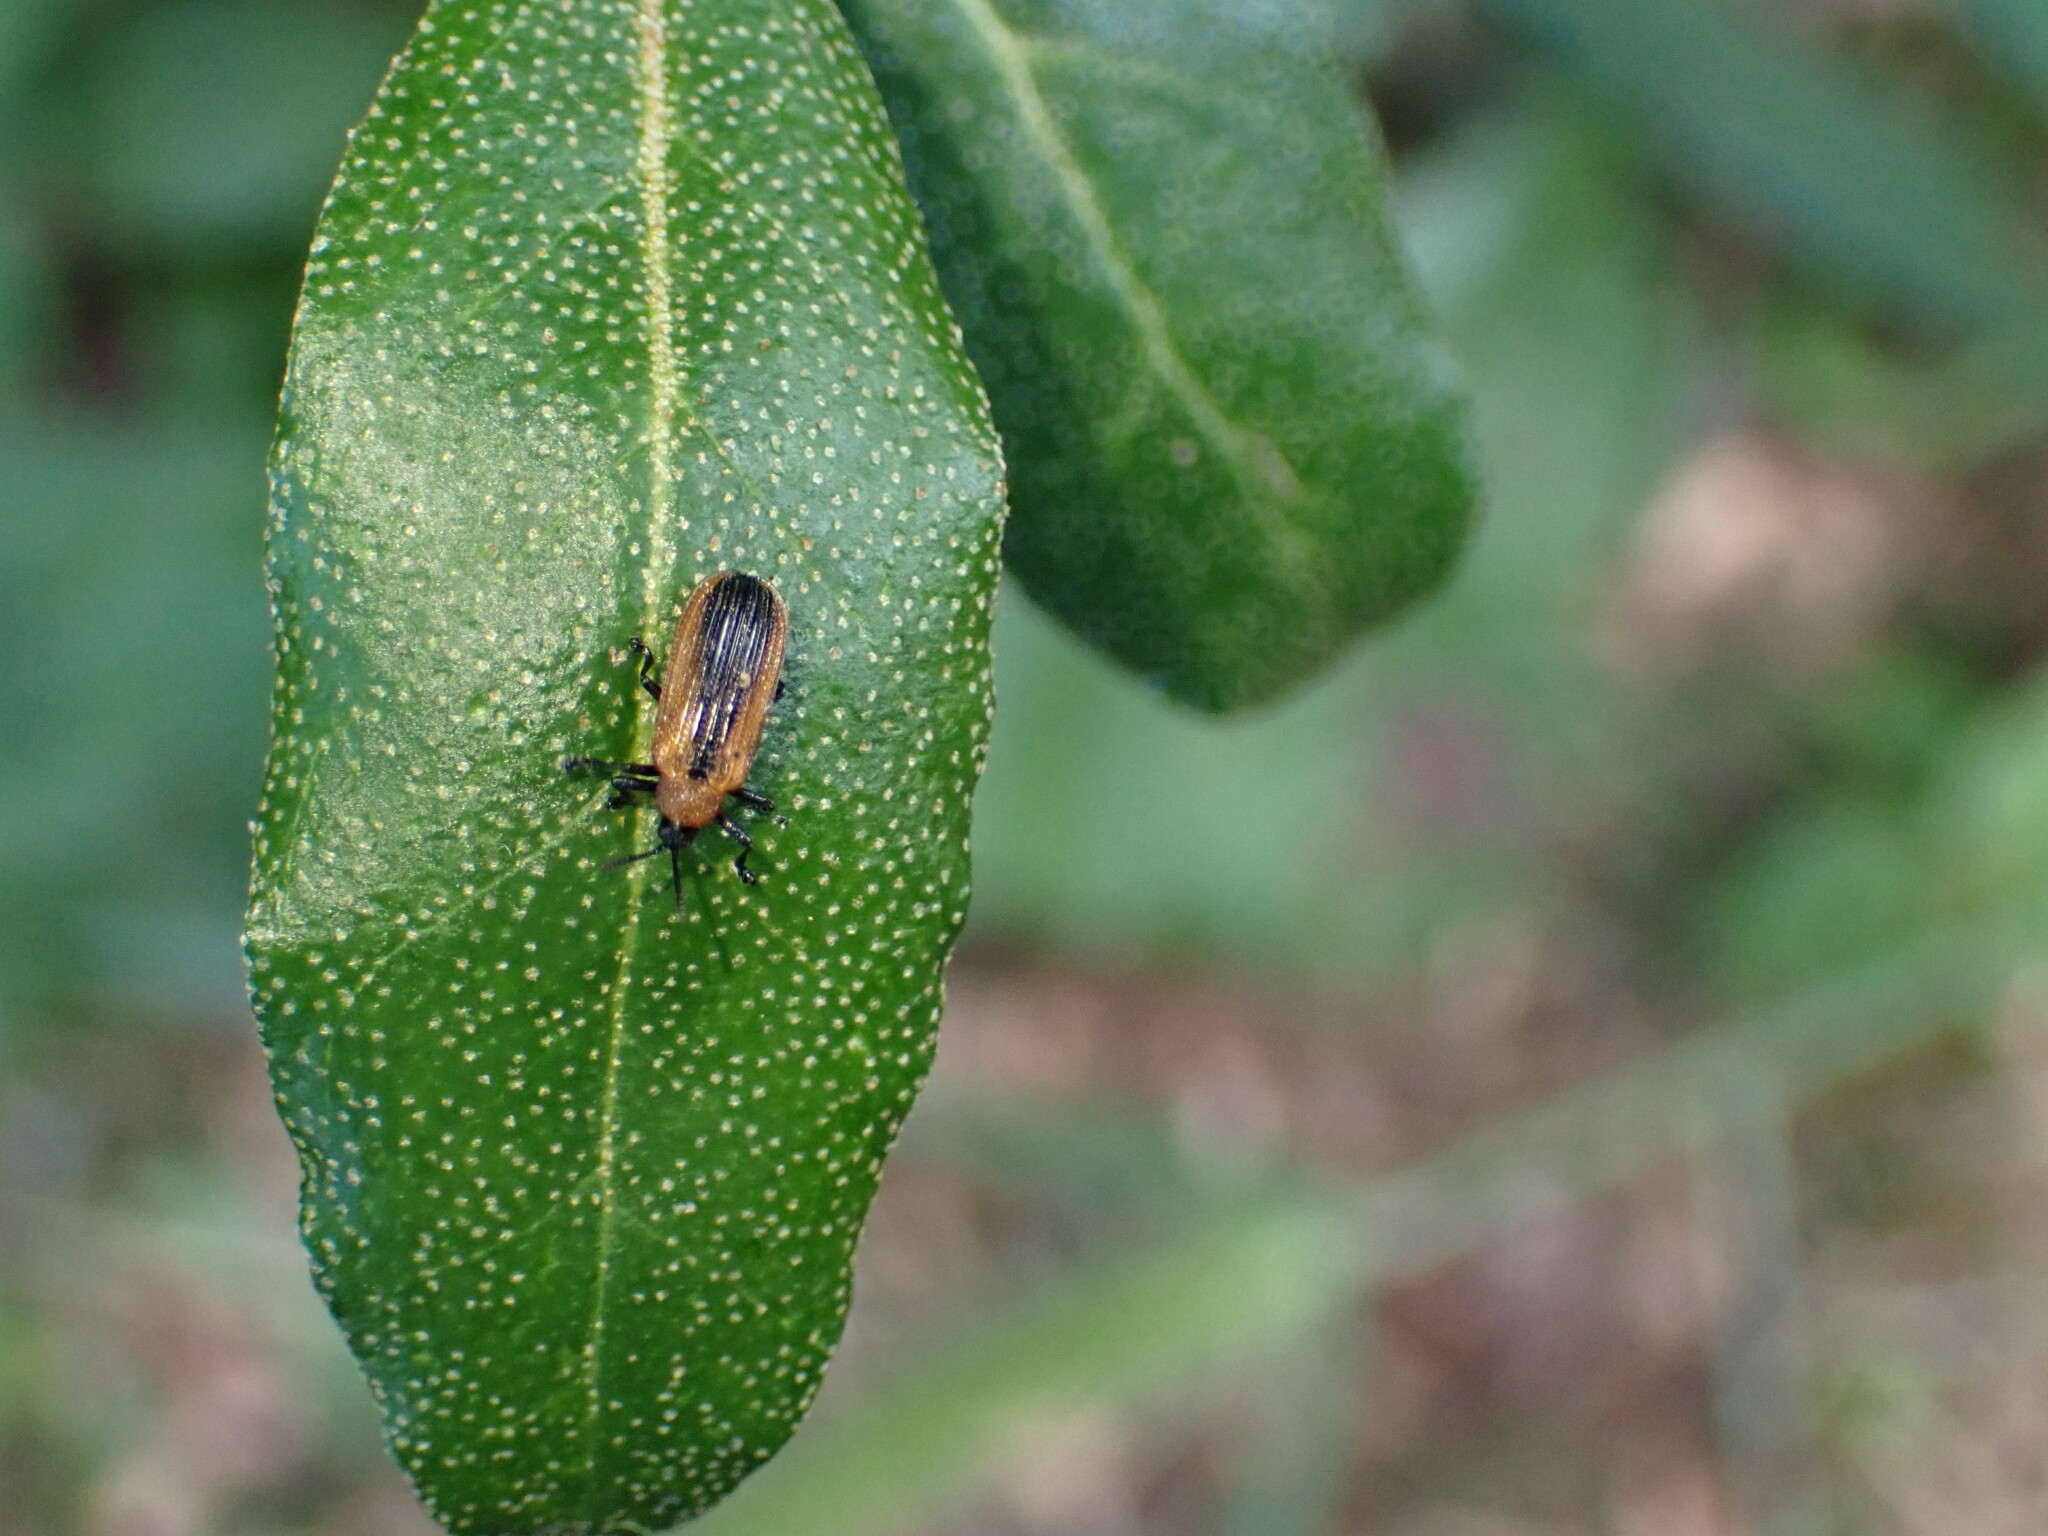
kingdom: Animalia
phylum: Arthropoda
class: Insecta
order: Coleoptera
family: Chrysomelidae
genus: Odontota
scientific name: Odontota dorsalis
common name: Locust leaf-miner beetle
